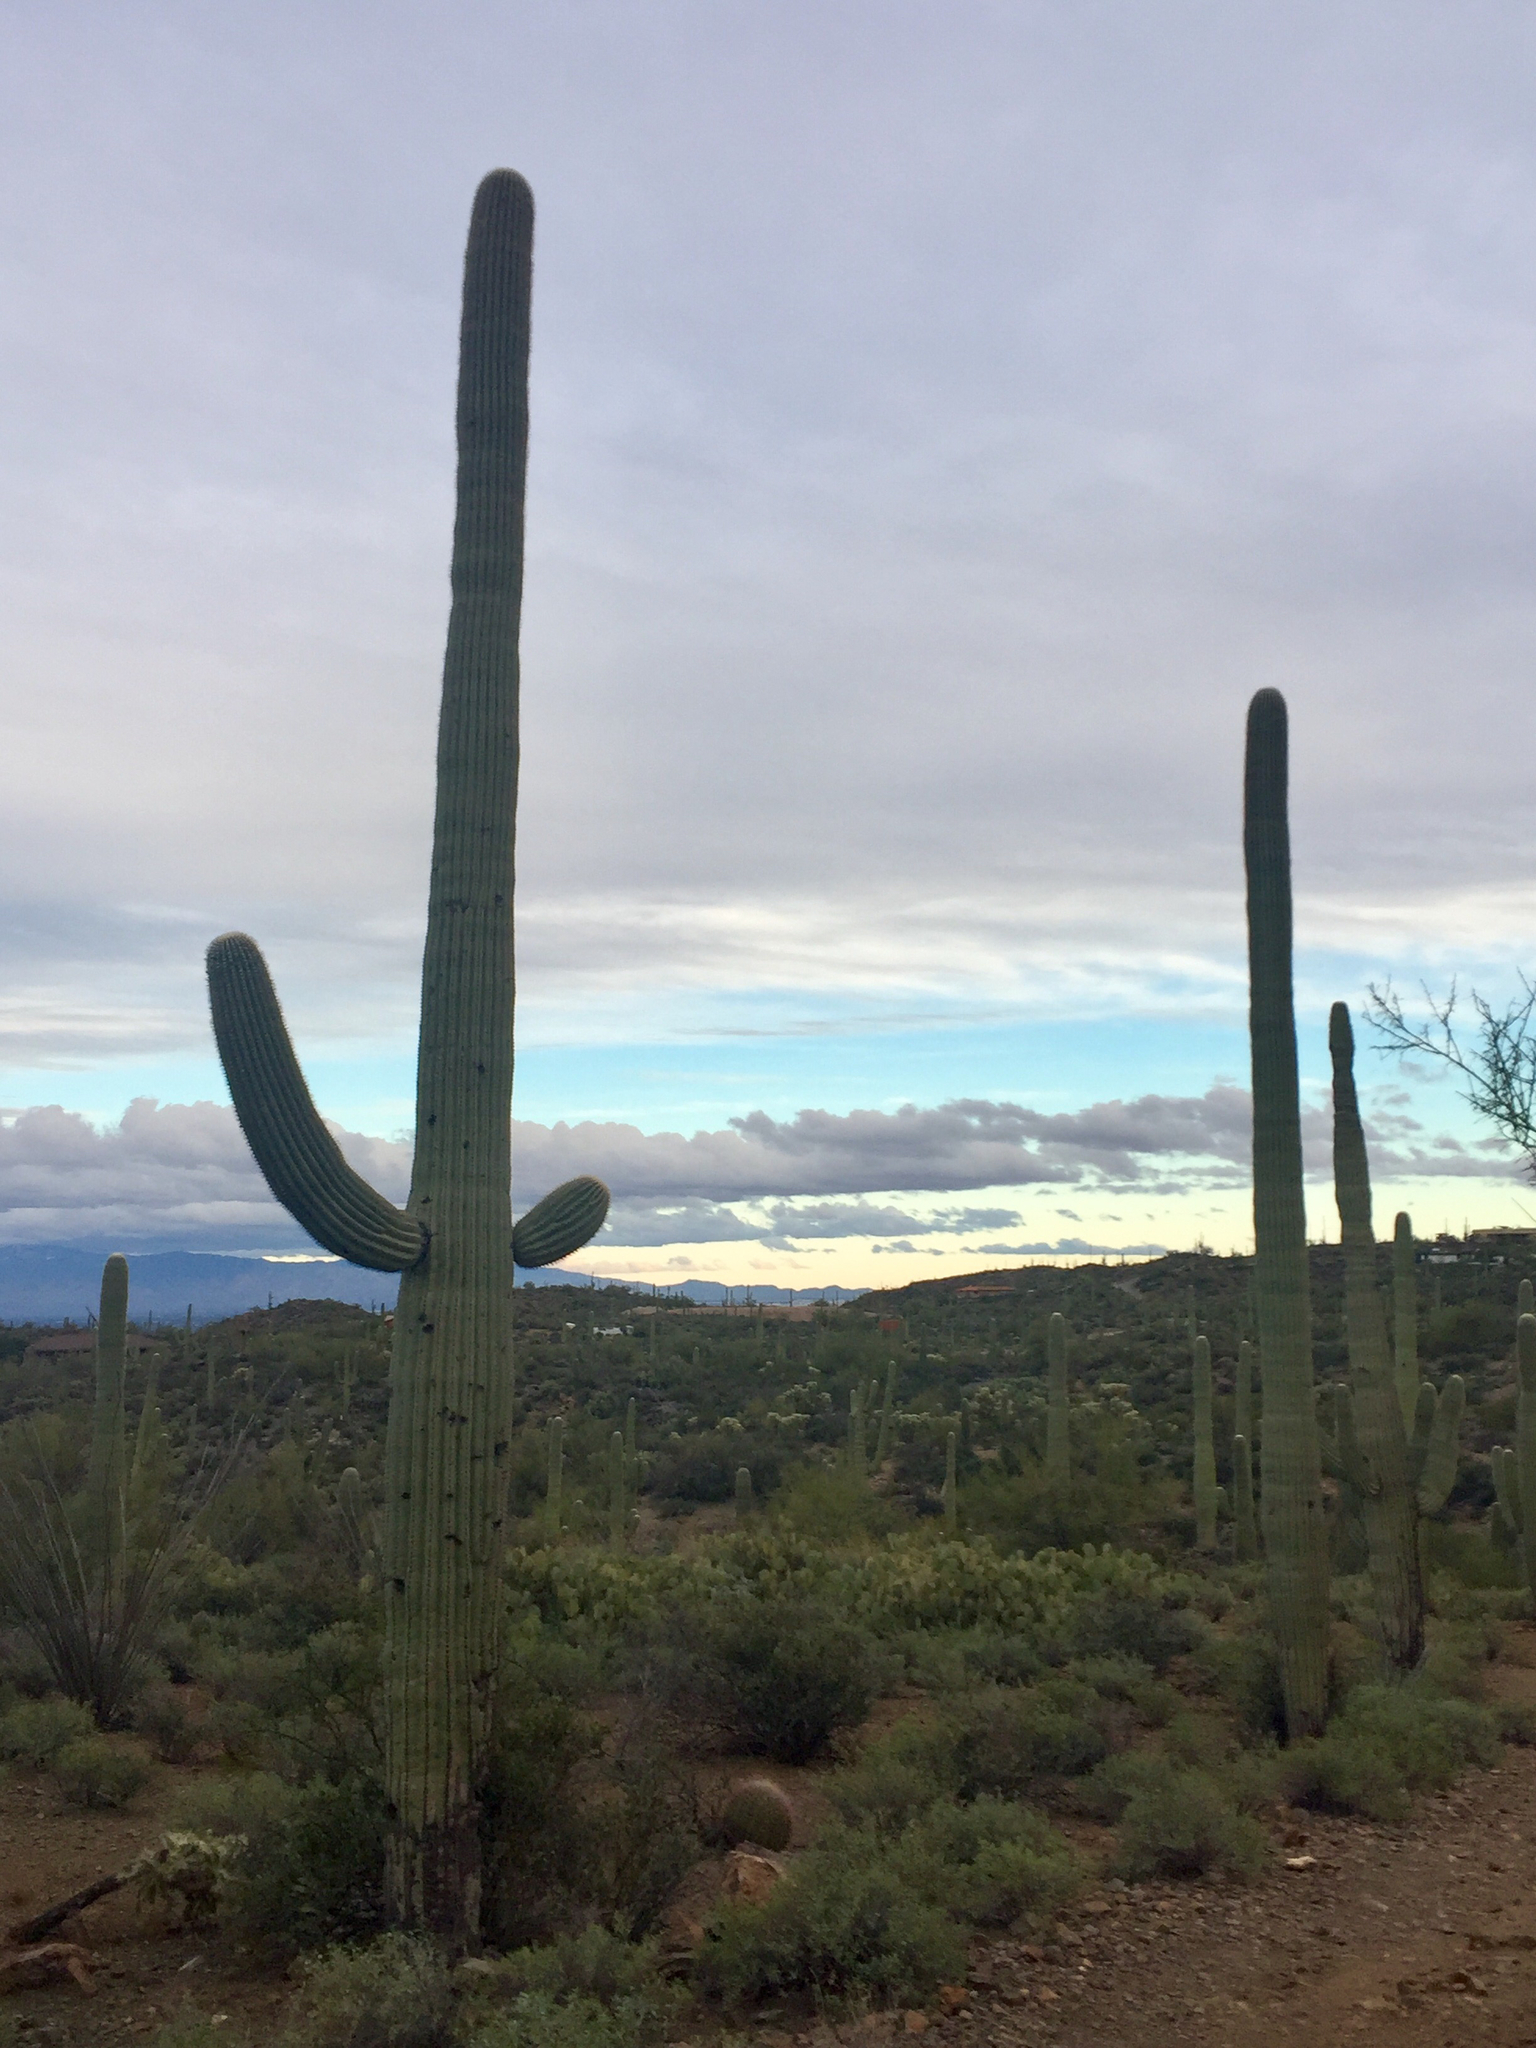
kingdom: Plantae
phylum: Tracheophyta
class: Magnoliopsida
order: Caryophyllales
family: Cactaceae
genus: Carnegiea
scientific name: Carnegiea gigantea
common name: Saguaro
